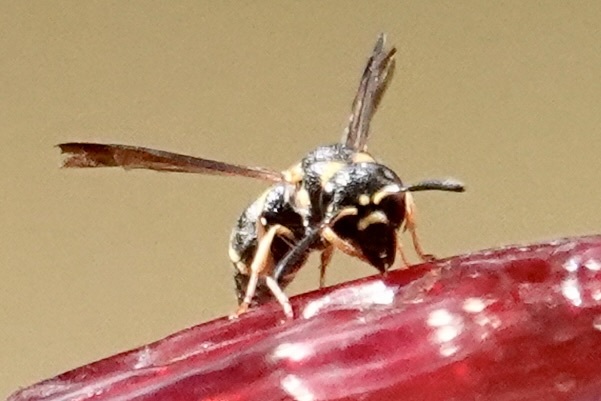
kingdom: Animalia
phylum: Arthropoda
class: Insecta
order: Hymenoptera
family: Eumenidae
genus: Parancistrocerus
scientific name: Parancistrocerus perennis
